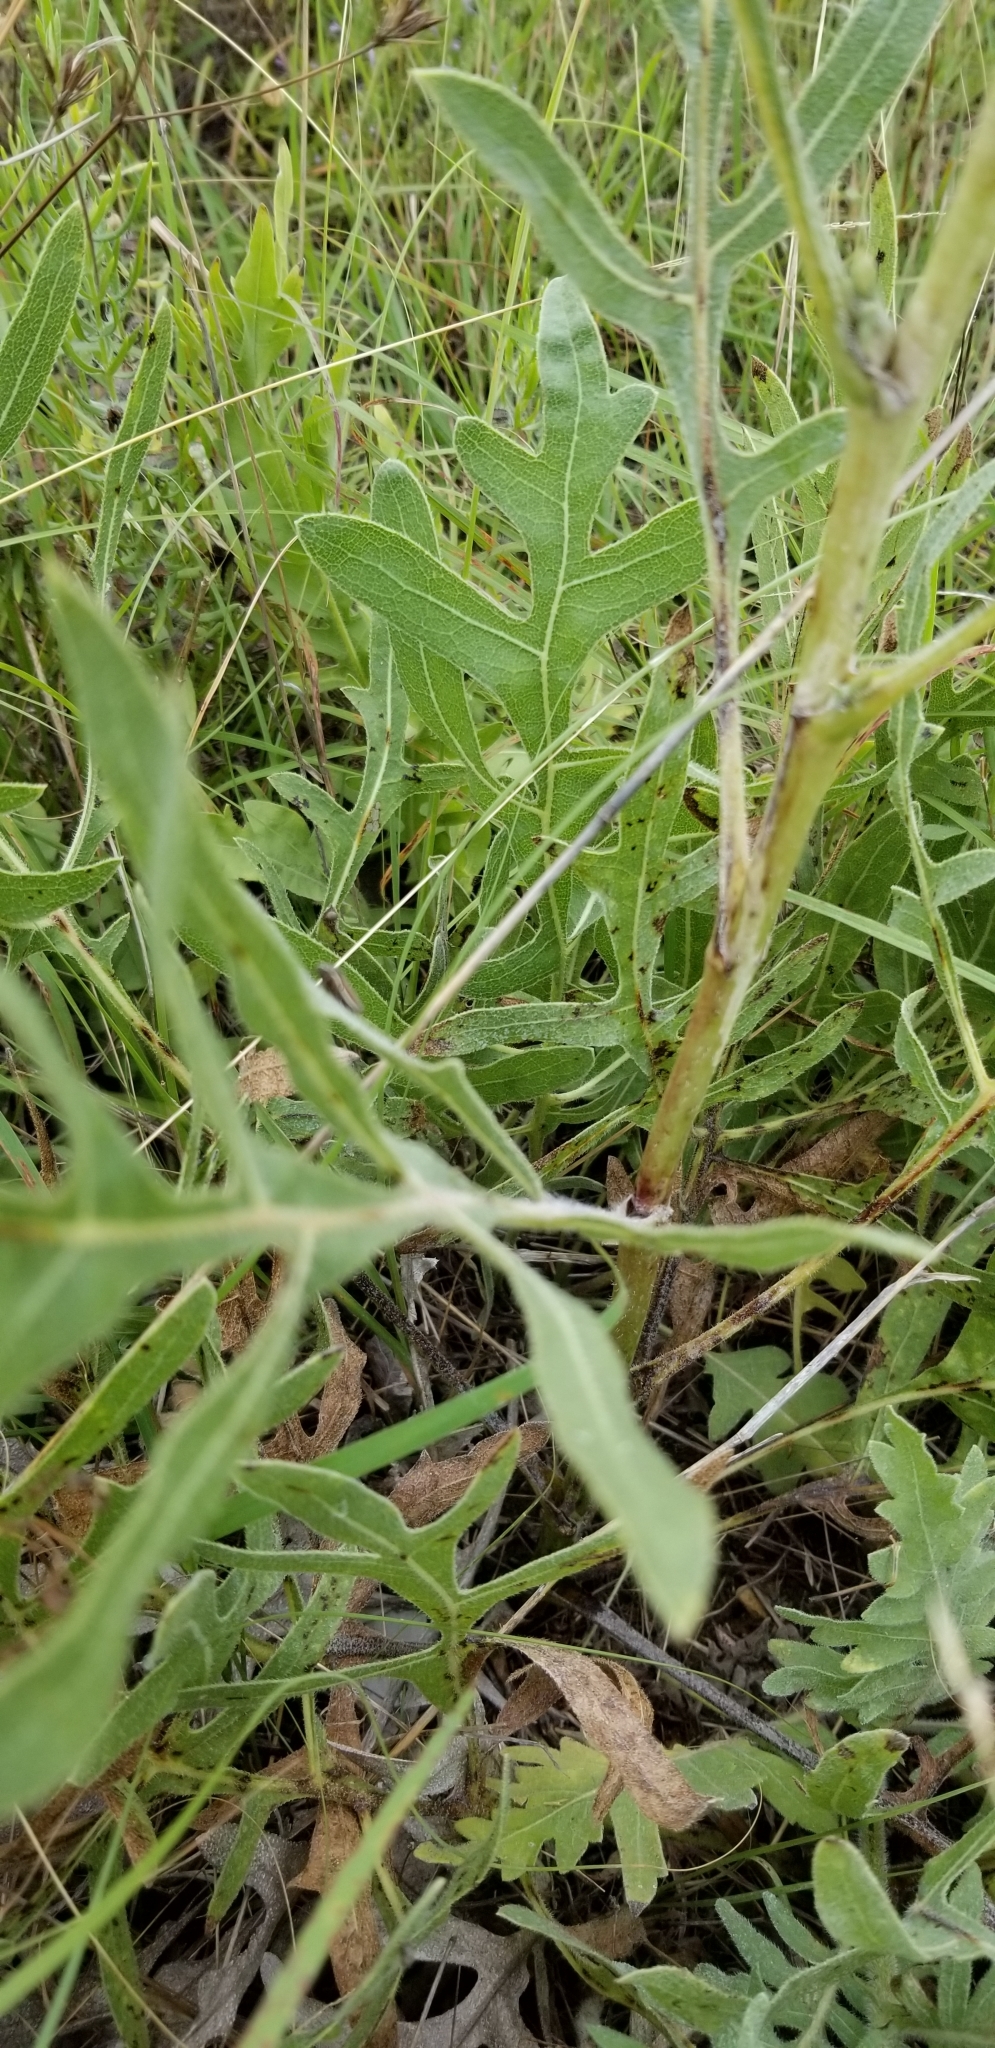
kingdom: Plantae
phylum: Tracheophyta
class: Magnoliopsida
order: Asterales
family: Asteraceae
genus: Silphium
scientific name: Silphium albiflorum
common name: White rosinweed
